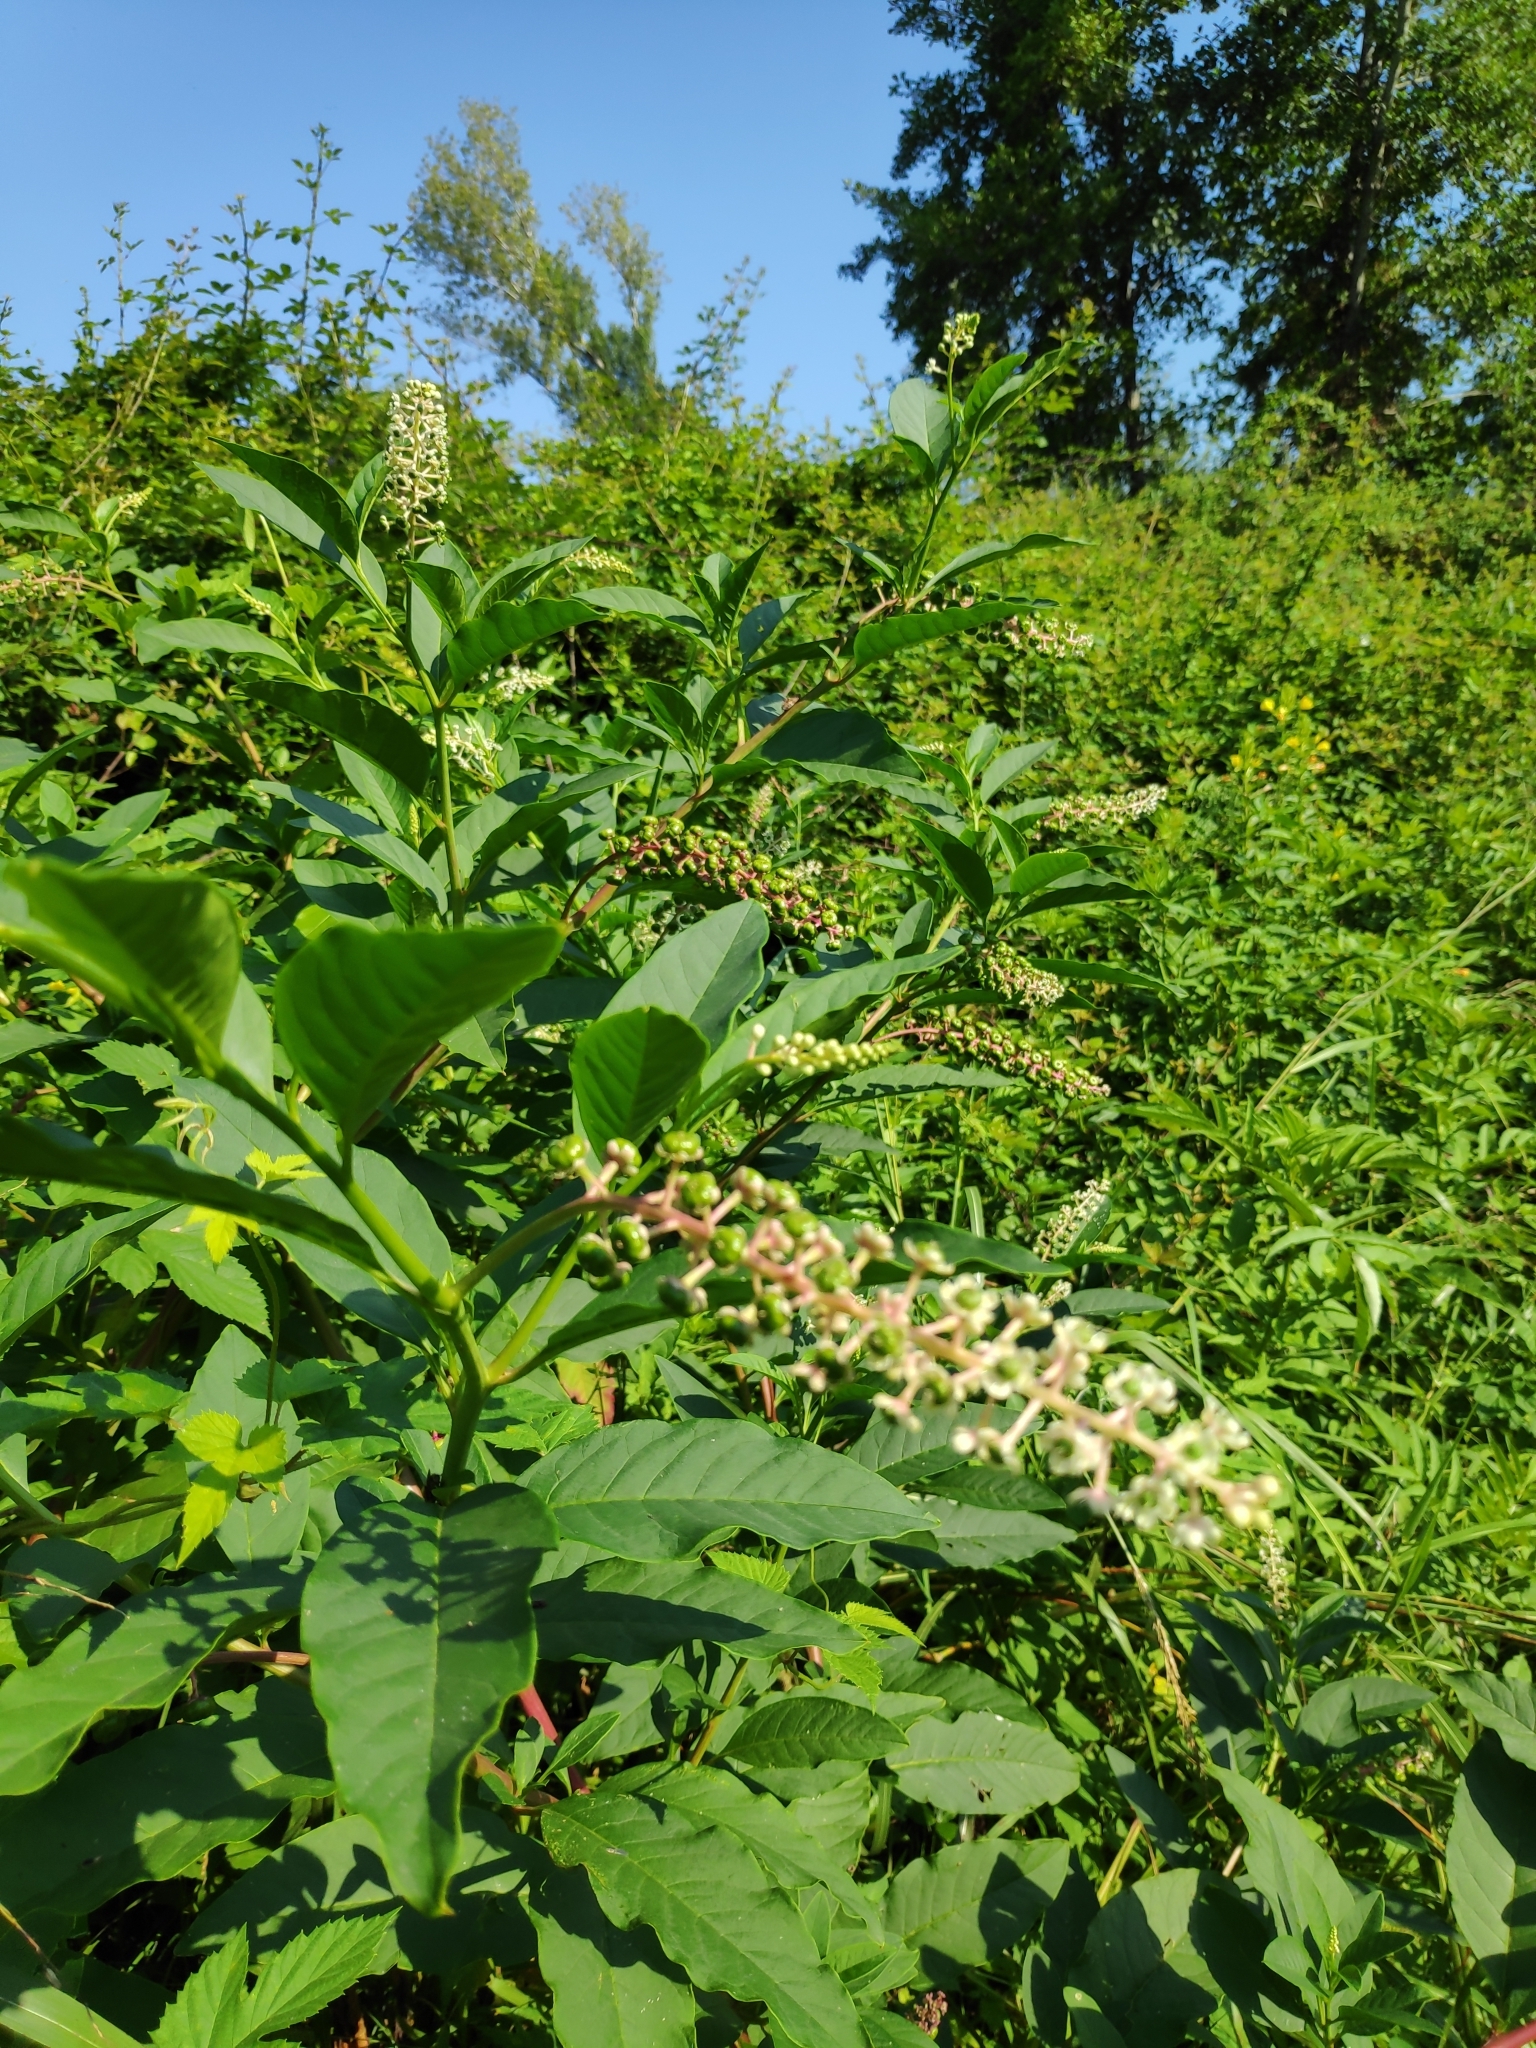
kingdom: Plantae
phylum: Tracheophyta
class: Magnoliopsida
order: Caryophyllales
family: Phytolaccaceae
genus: Phytolacca
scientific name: Phytolacca americana
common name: American pokeweed
